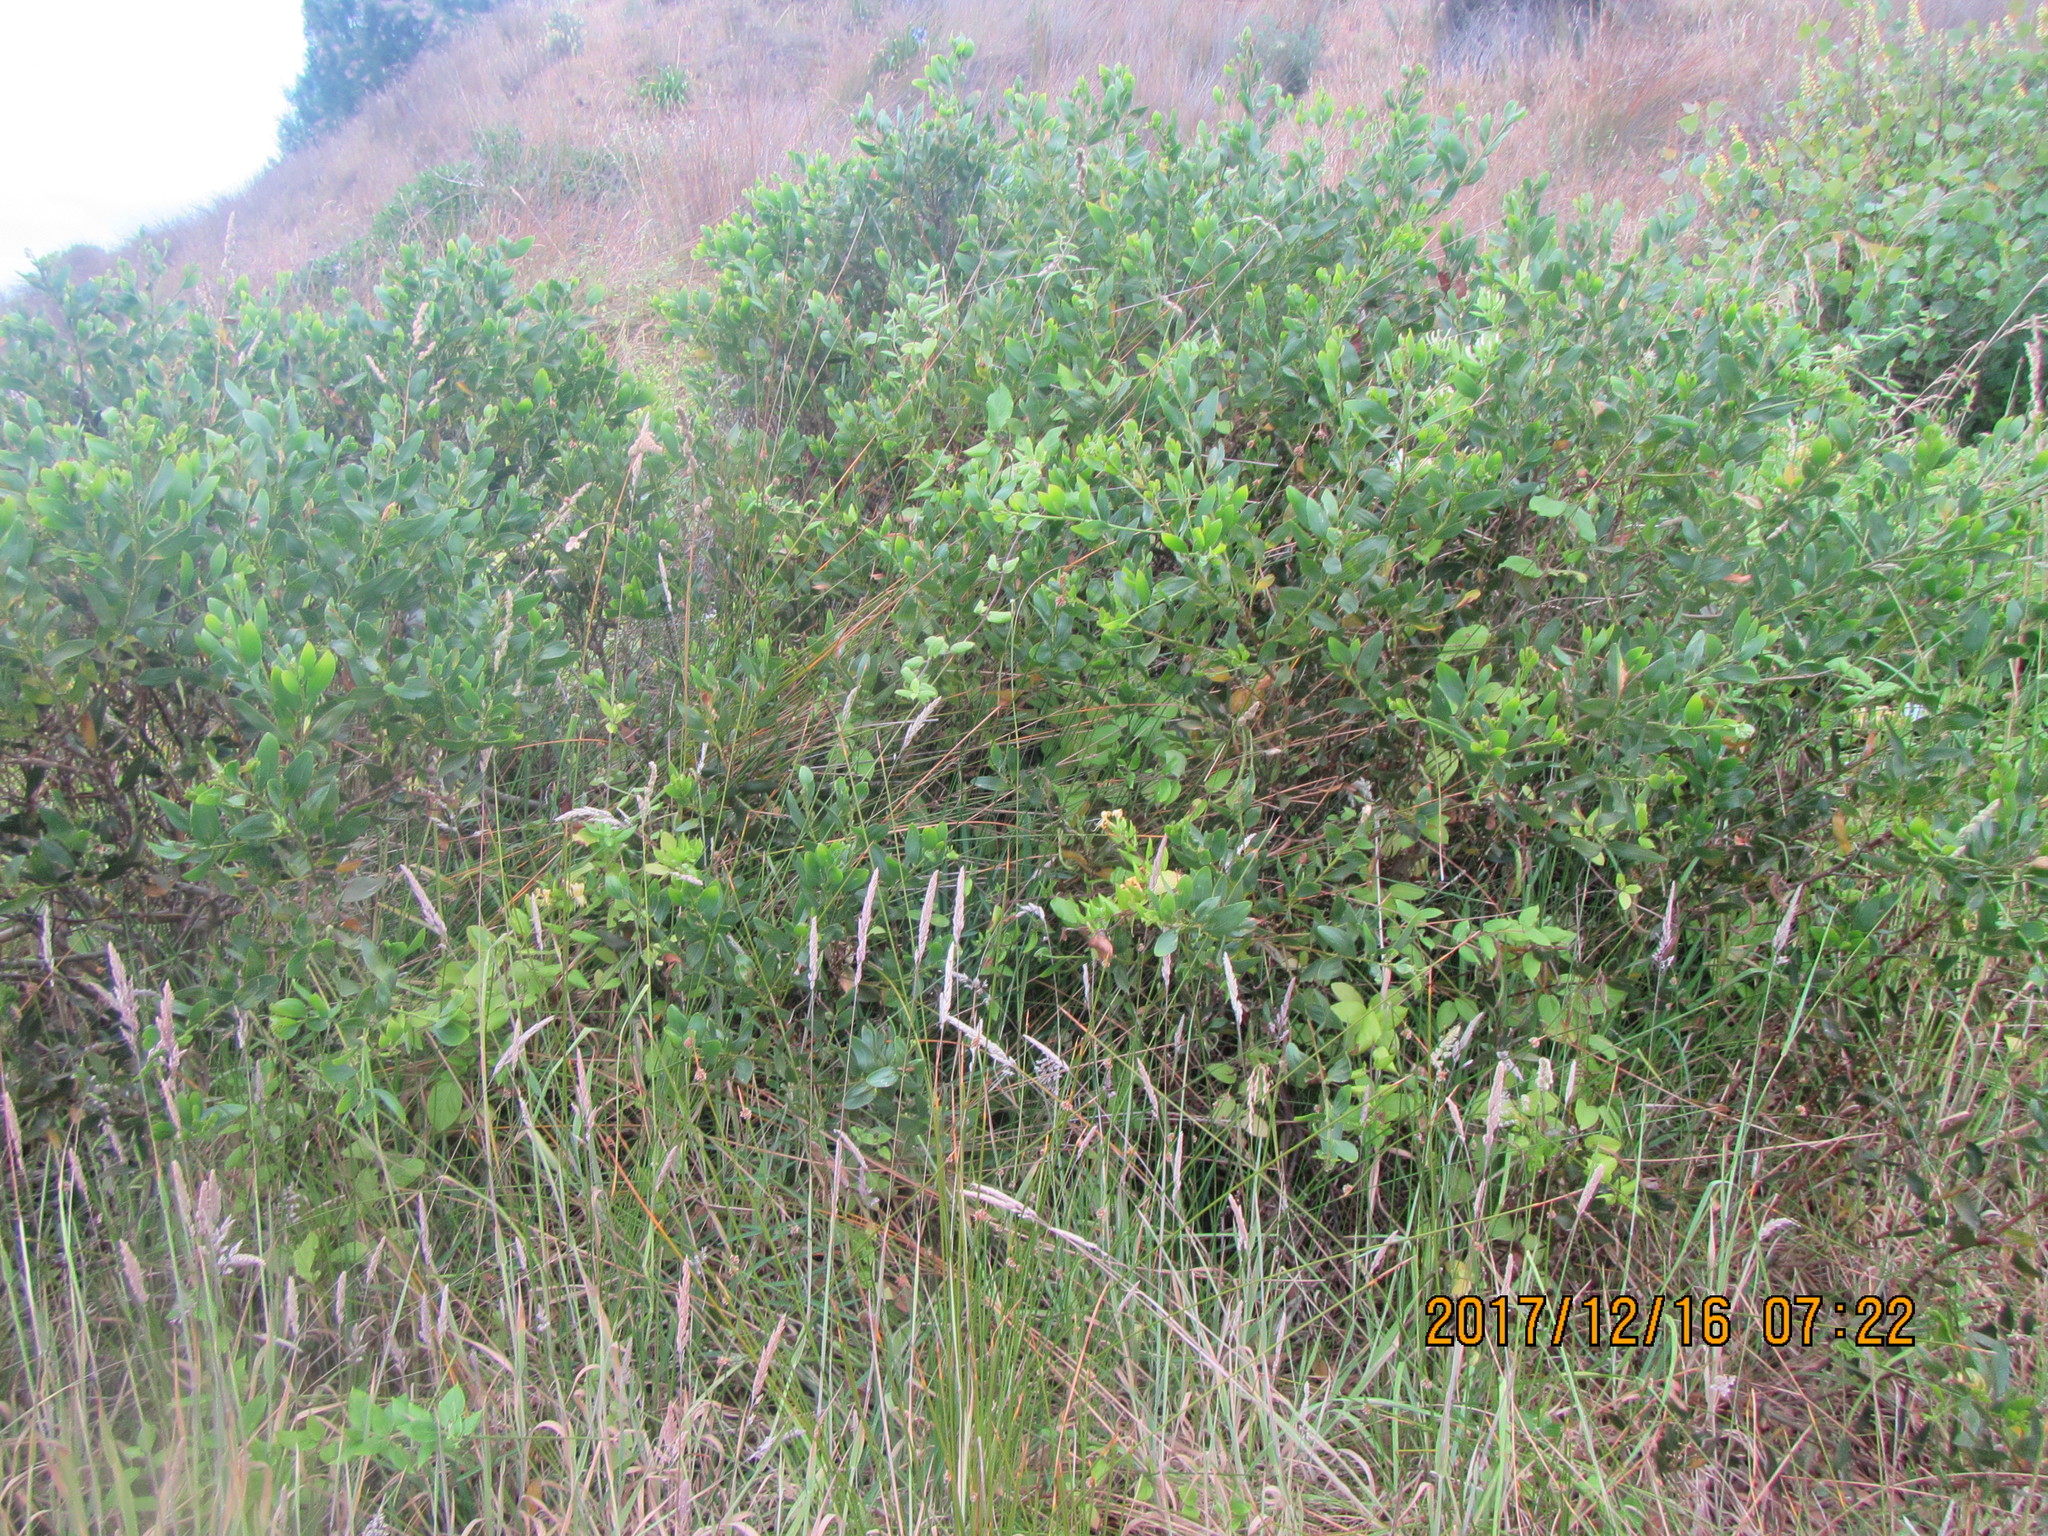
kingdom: Plantae
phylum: Tracheophyta
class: Magnoliopsida
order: Fabales
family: Fabaceae
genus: Acacia
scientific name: Acacia longifolia
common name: Sydney golden wattle
